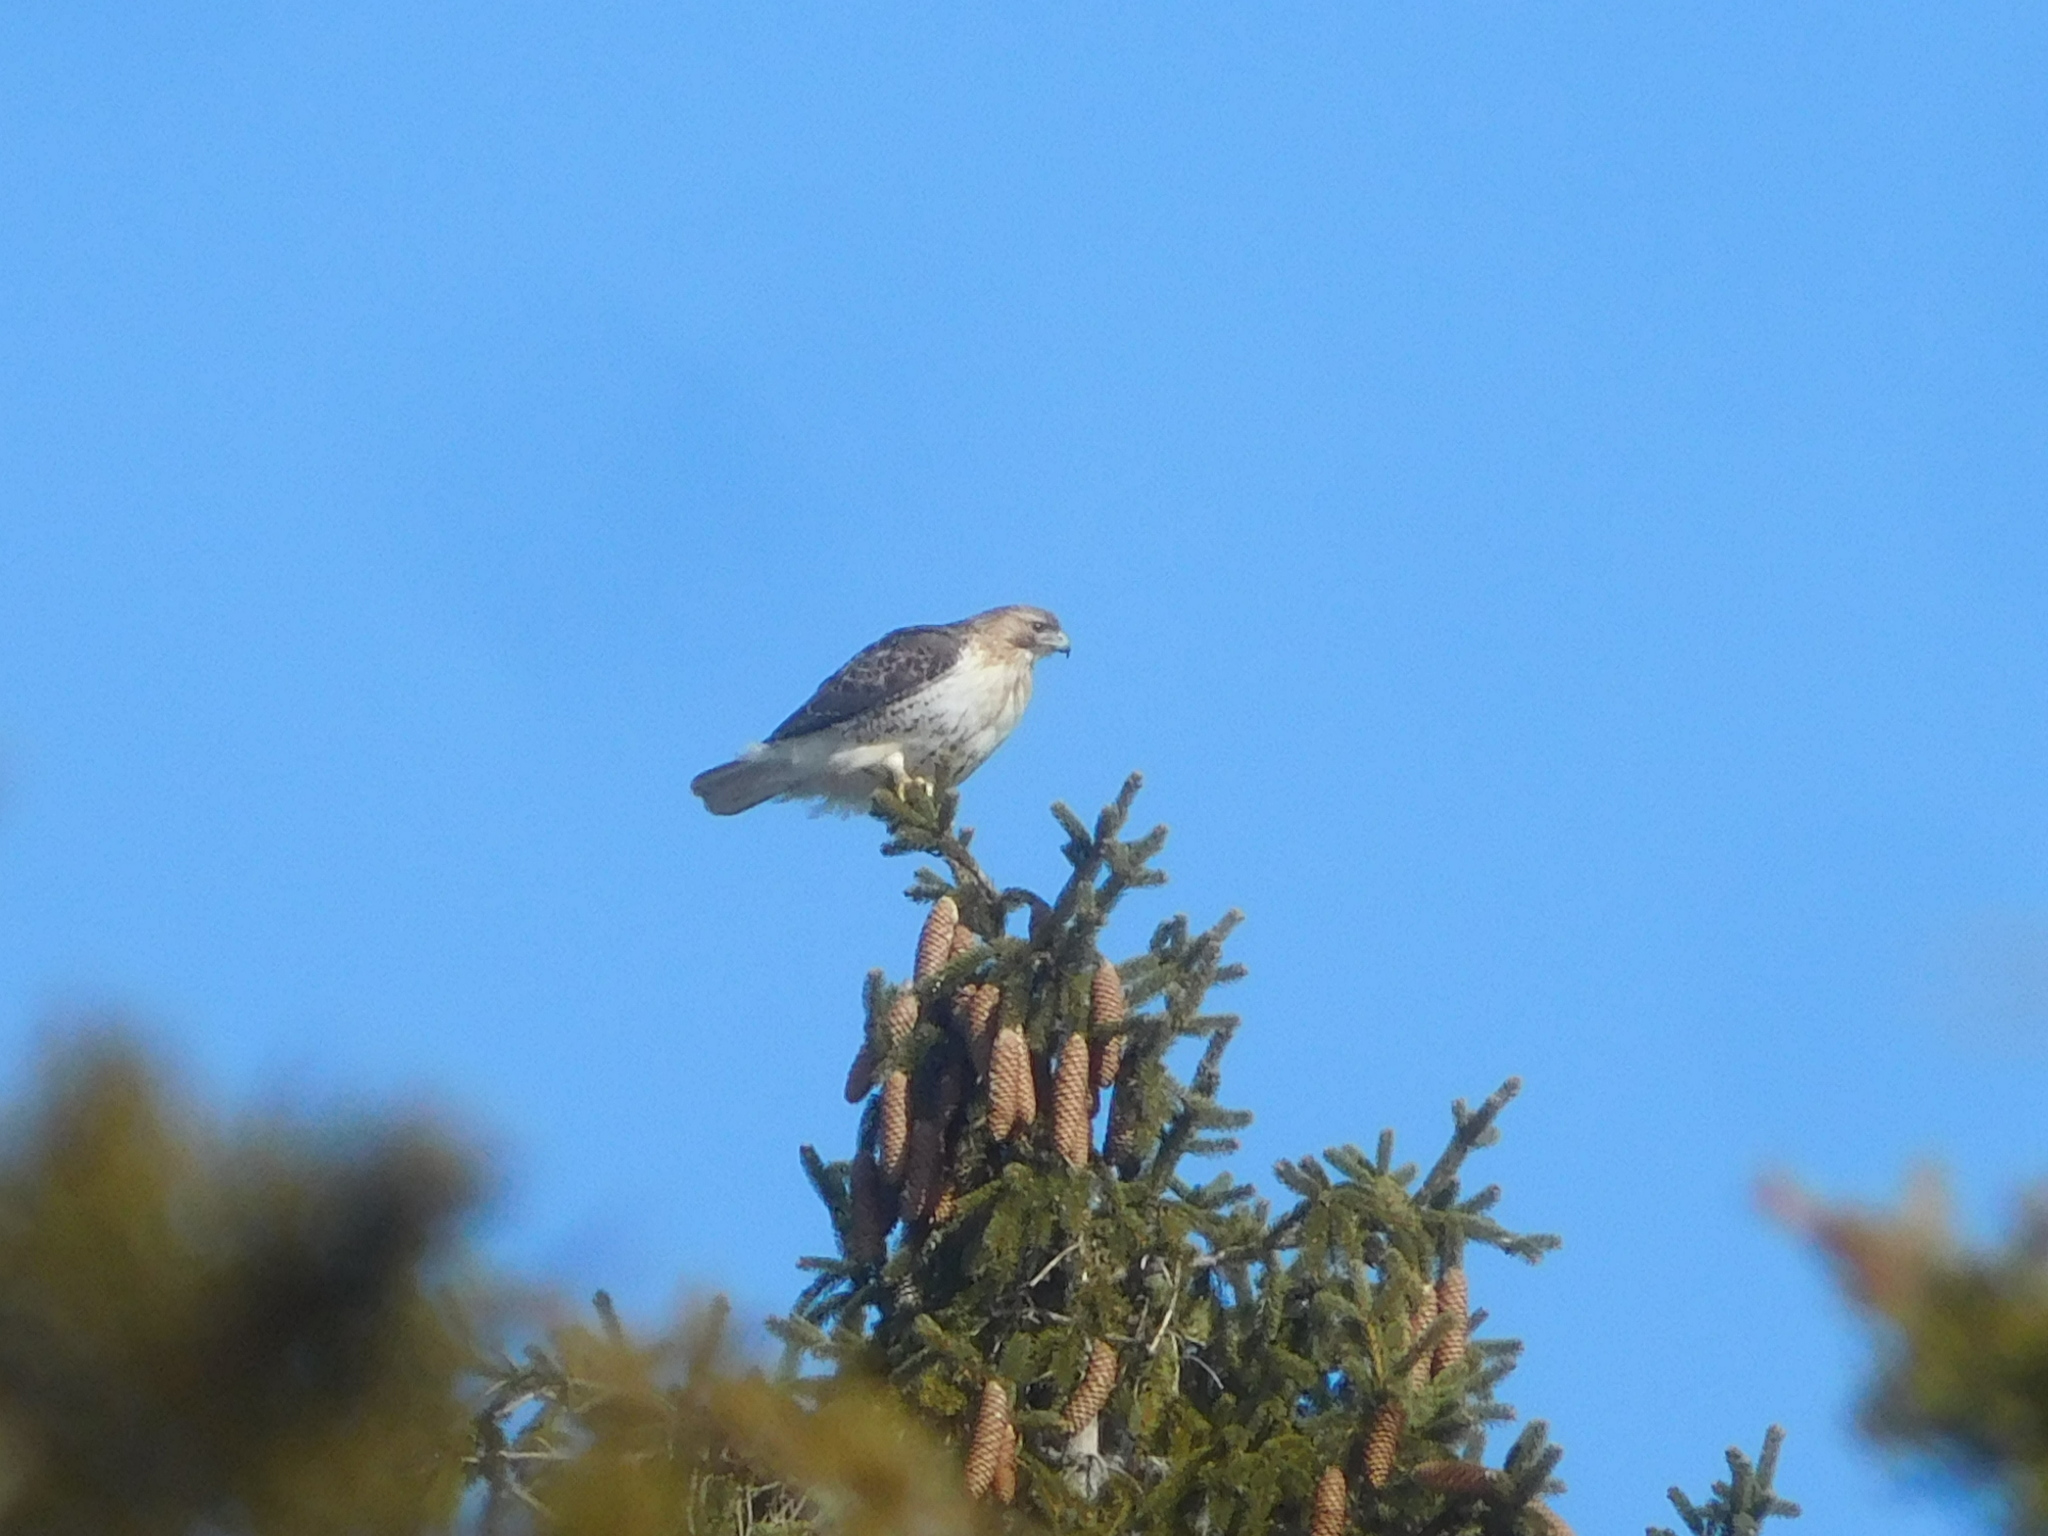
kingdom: Animalia
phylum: Chordata
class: Aves
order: Accipitriformes
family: Accipitridae
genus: Buteo
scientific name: Buteo jamaicensis
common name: Red-tailed hawk
